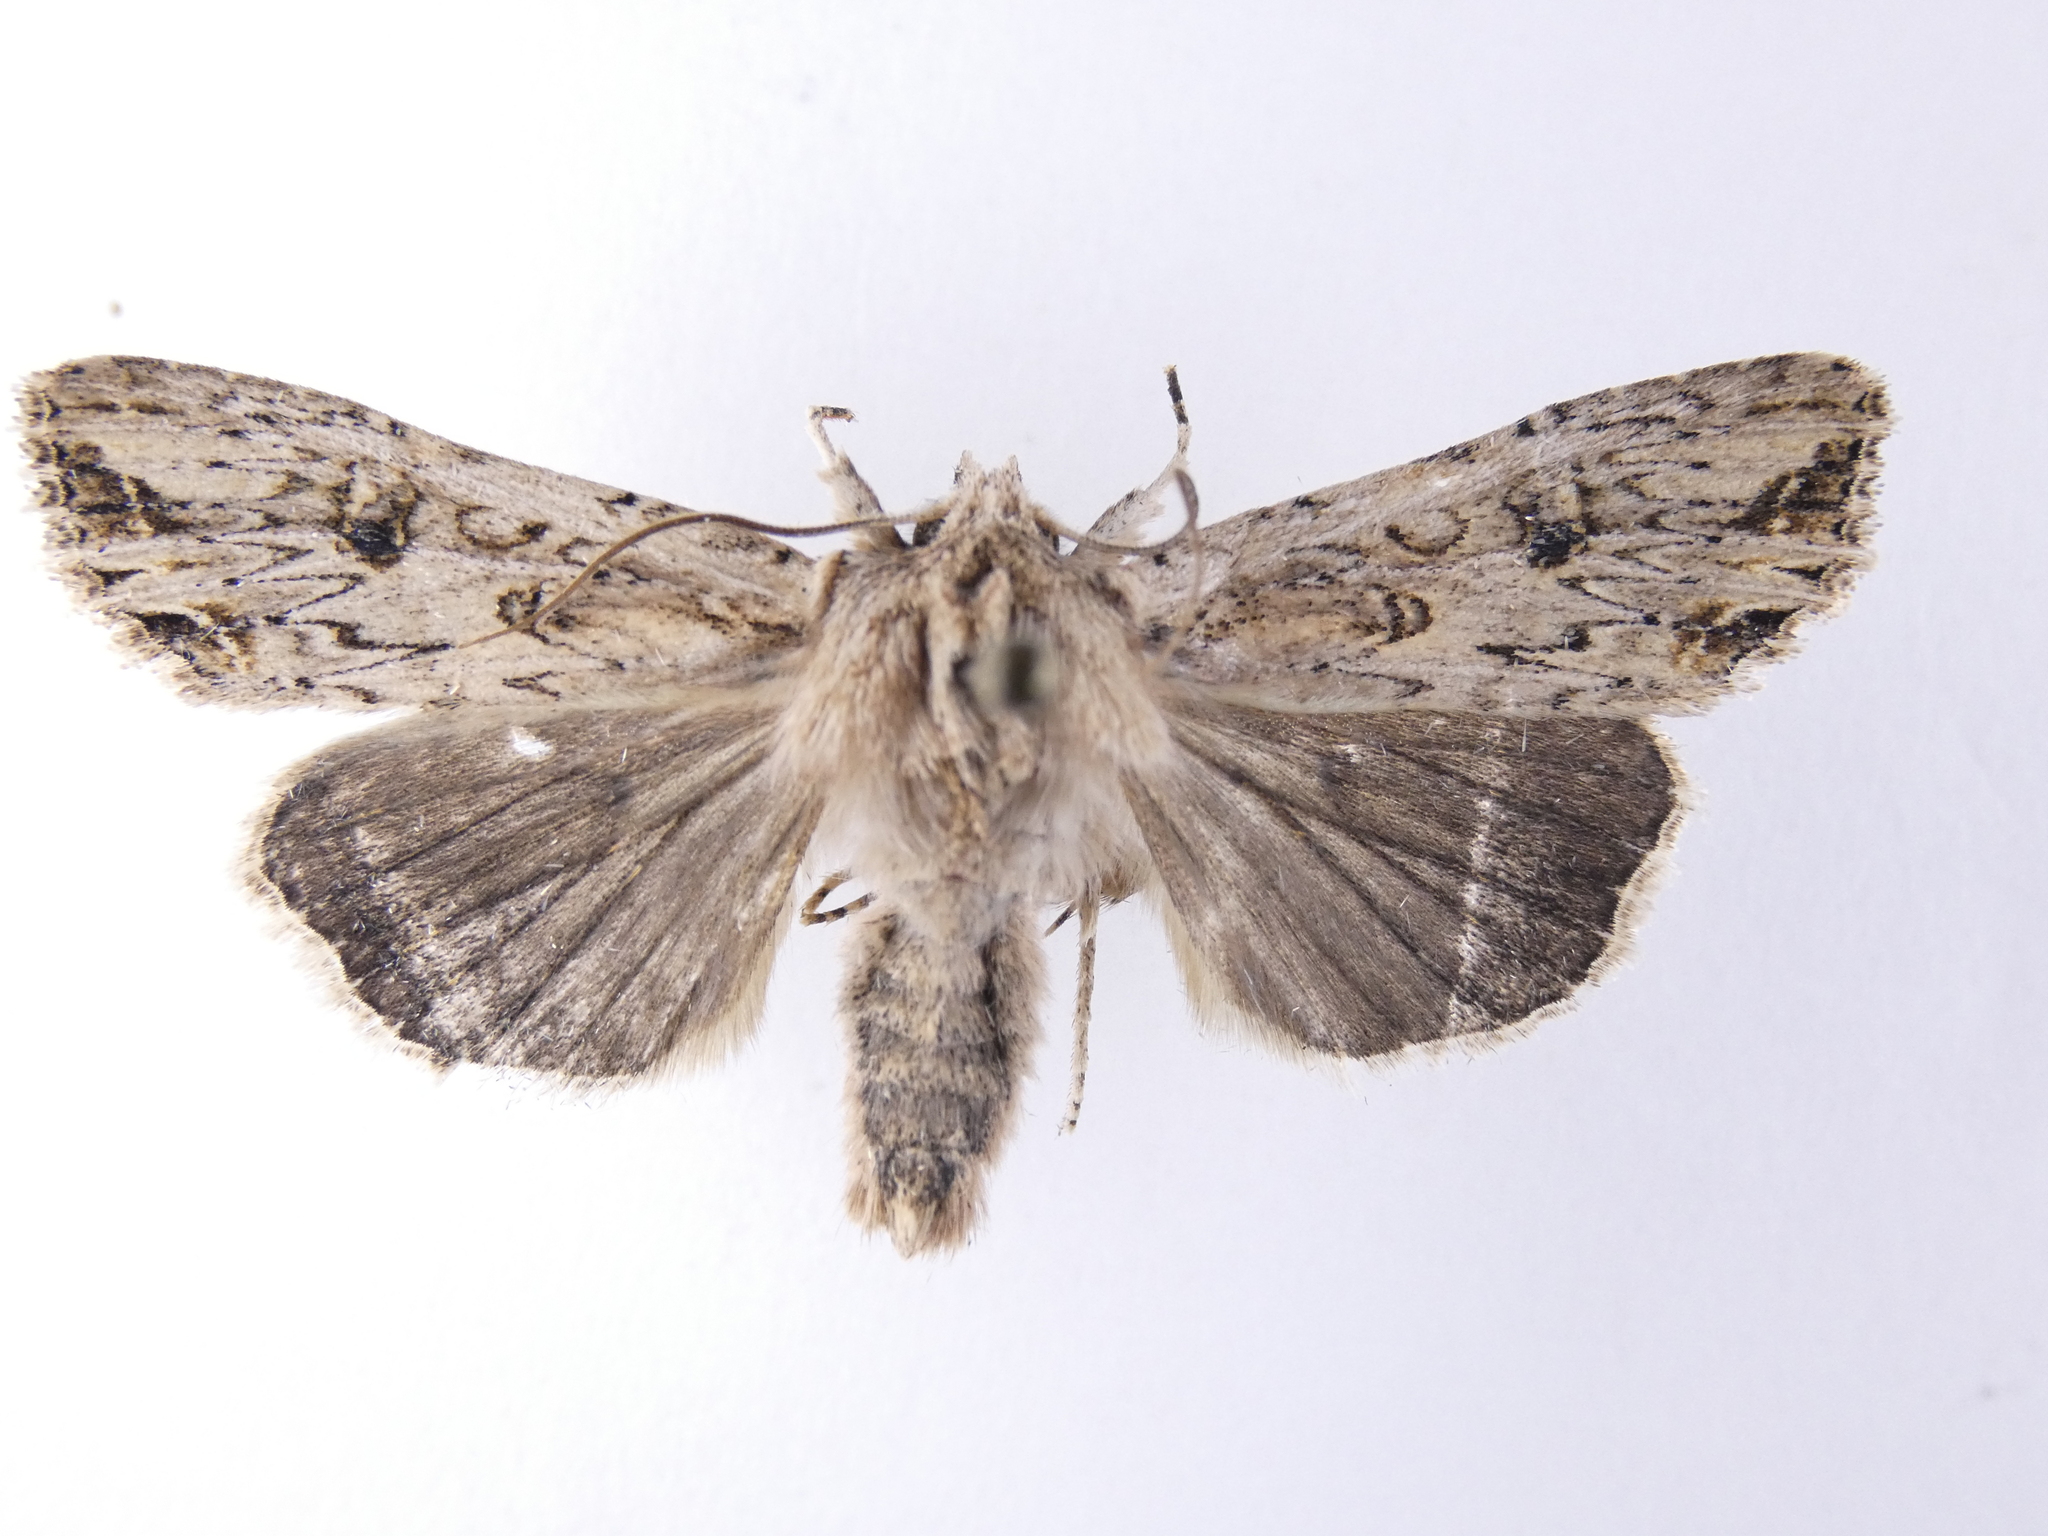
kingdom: Animalia
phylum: Arthropoda
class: Insecta
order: Lepidoptera
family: Noctuidae
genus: Ichneutica
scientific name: Ichneutica lignana
